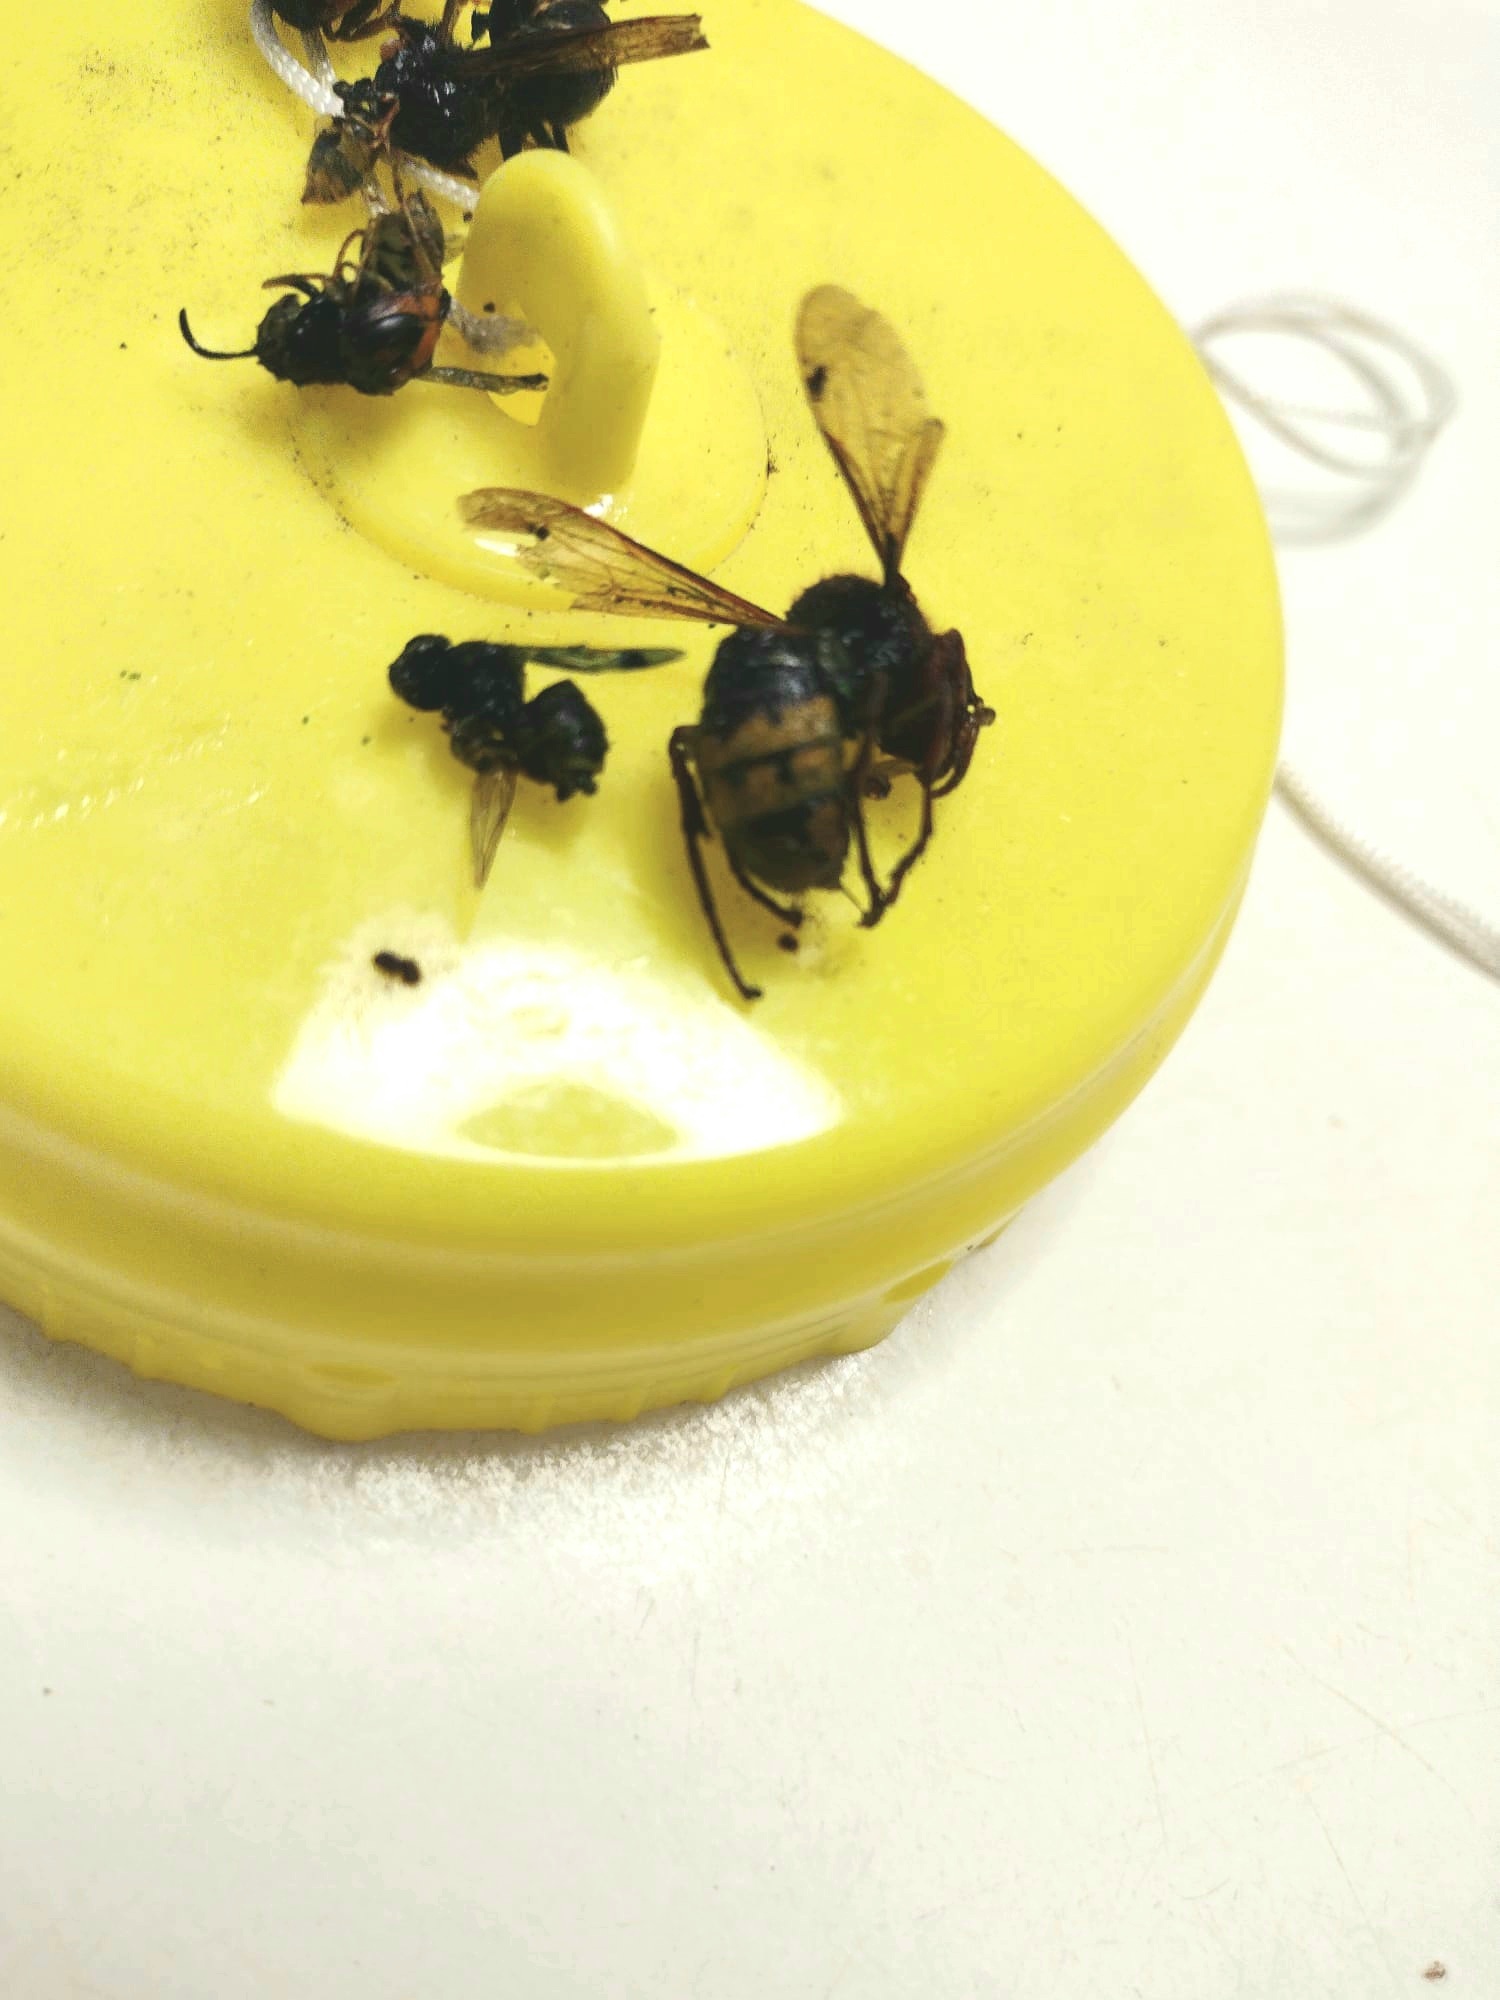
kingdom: Animalia
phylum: Arthropoda
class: Insecta
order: Hymenoptera
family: Vespidae
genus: Vespa
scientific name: Vespa crabro
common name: Hornet
